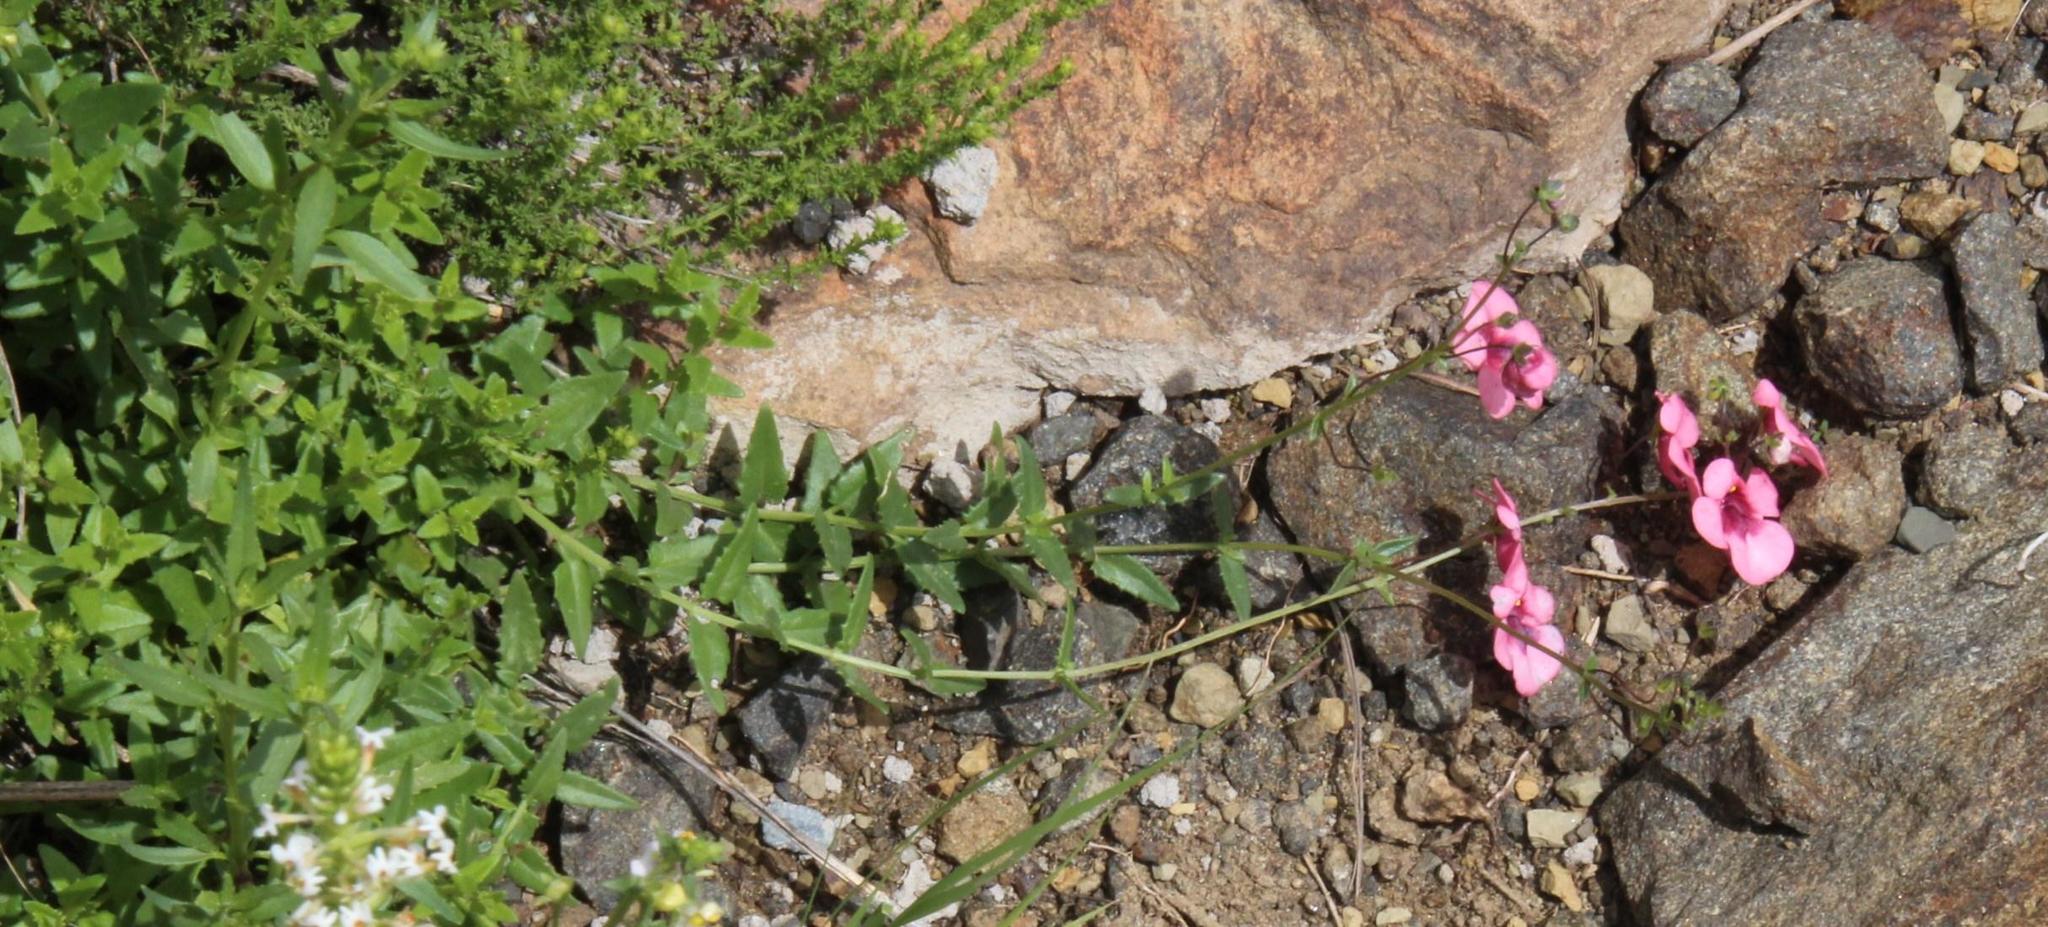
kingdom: Plantae
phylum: Tracheophyta
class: Magnoliopsida
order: Lamiales
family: Scrophulariaceae
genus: Diascia
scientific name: Diascia capsularis
